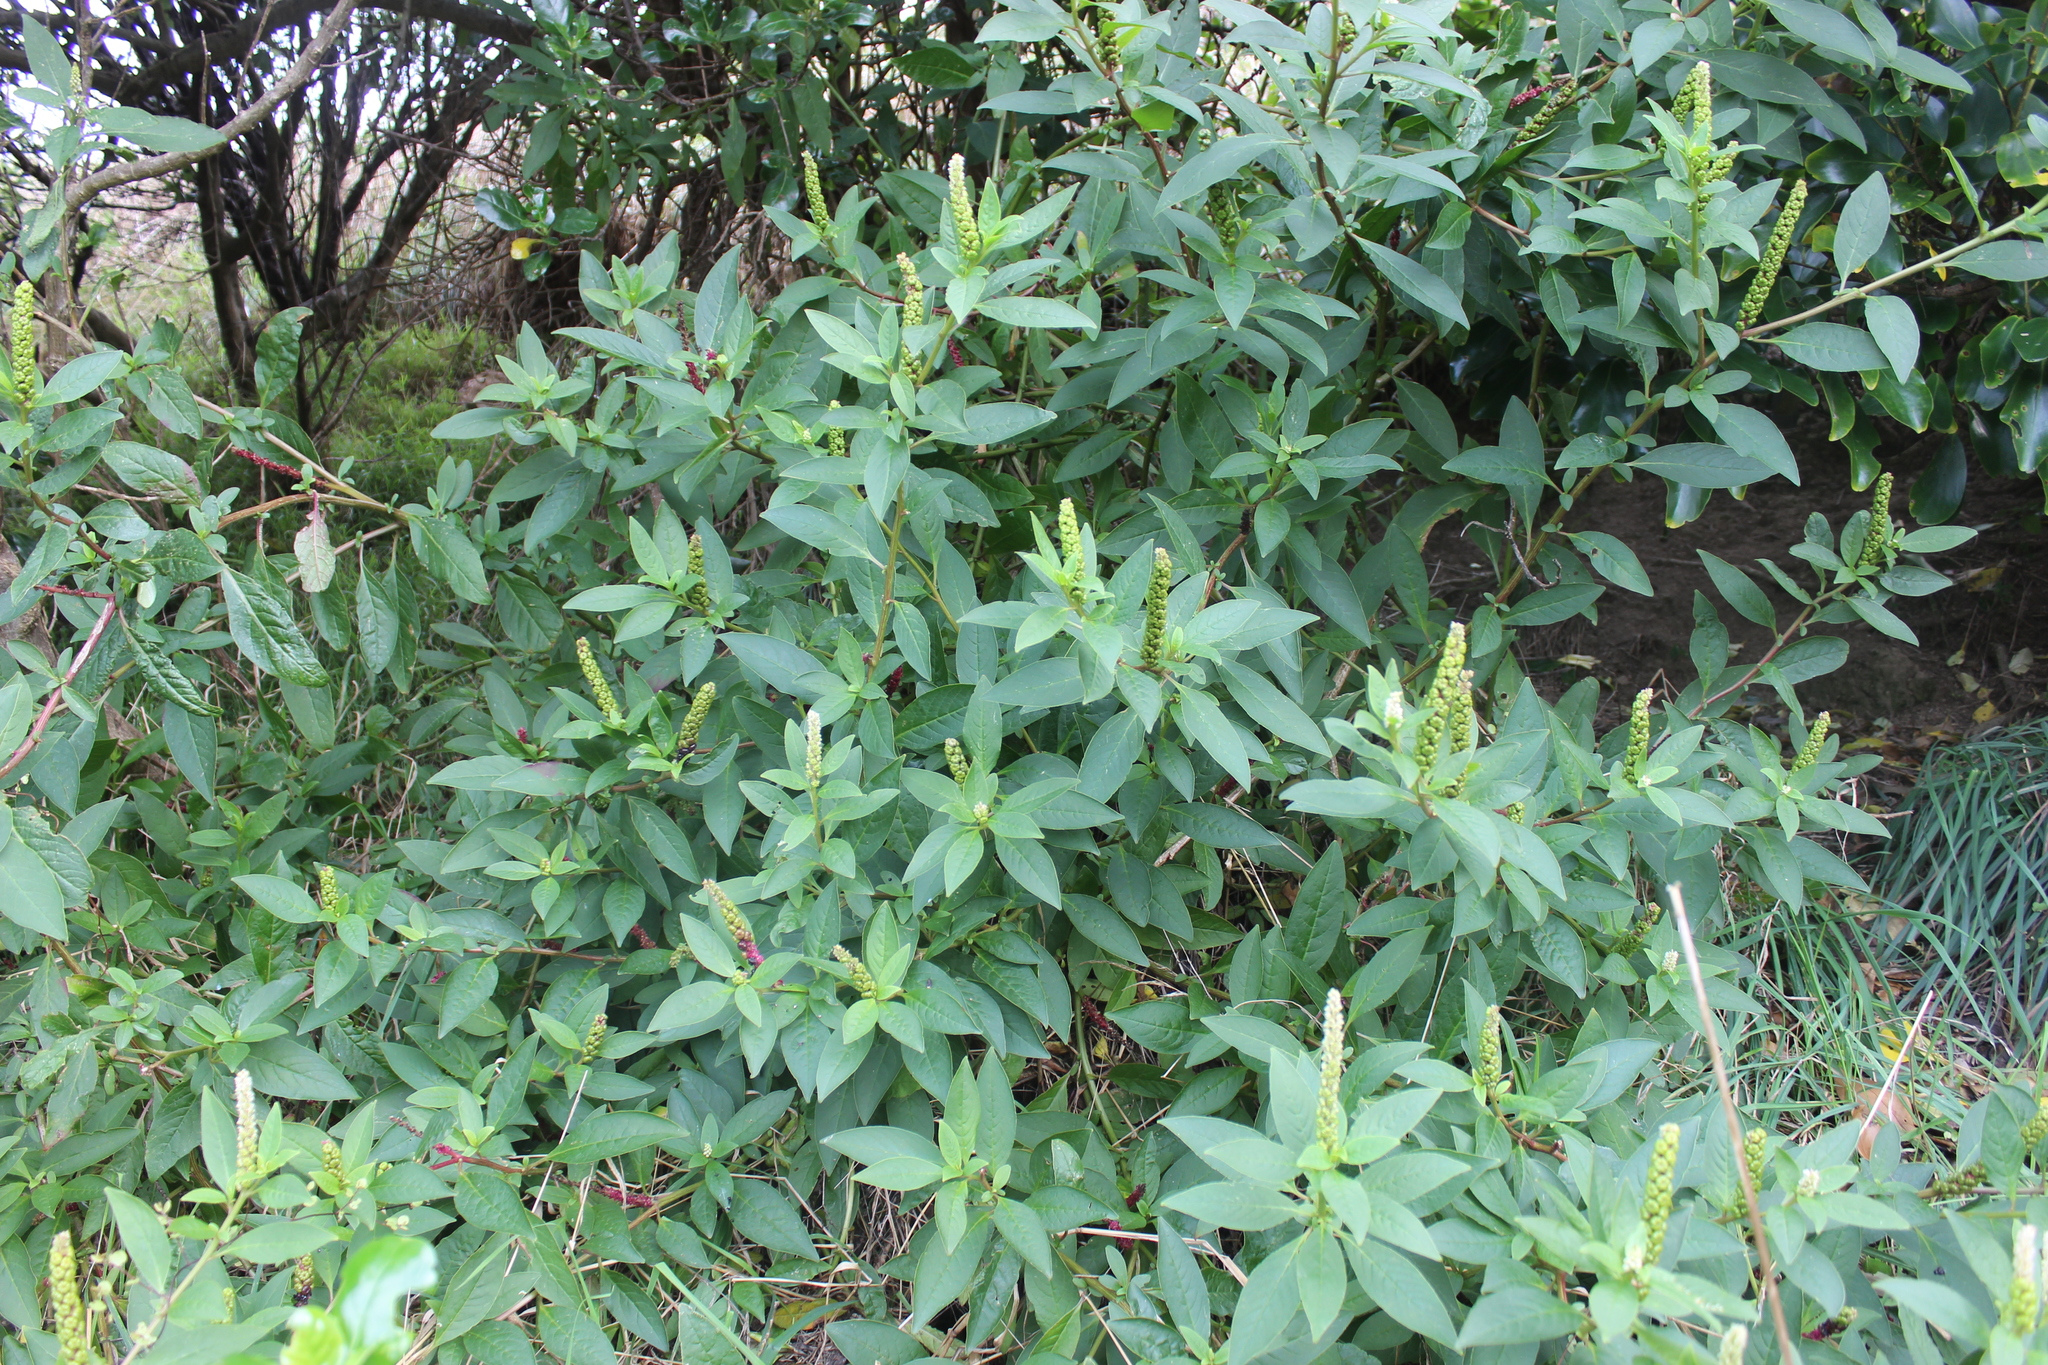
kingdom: Plantae
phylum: Tracheophyta
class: Magnoliopsida
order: Caryophyllales
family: Phytolaccaceae
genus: Phytolacca
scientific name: Phytolacca icosandra
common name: Button pokeweed
